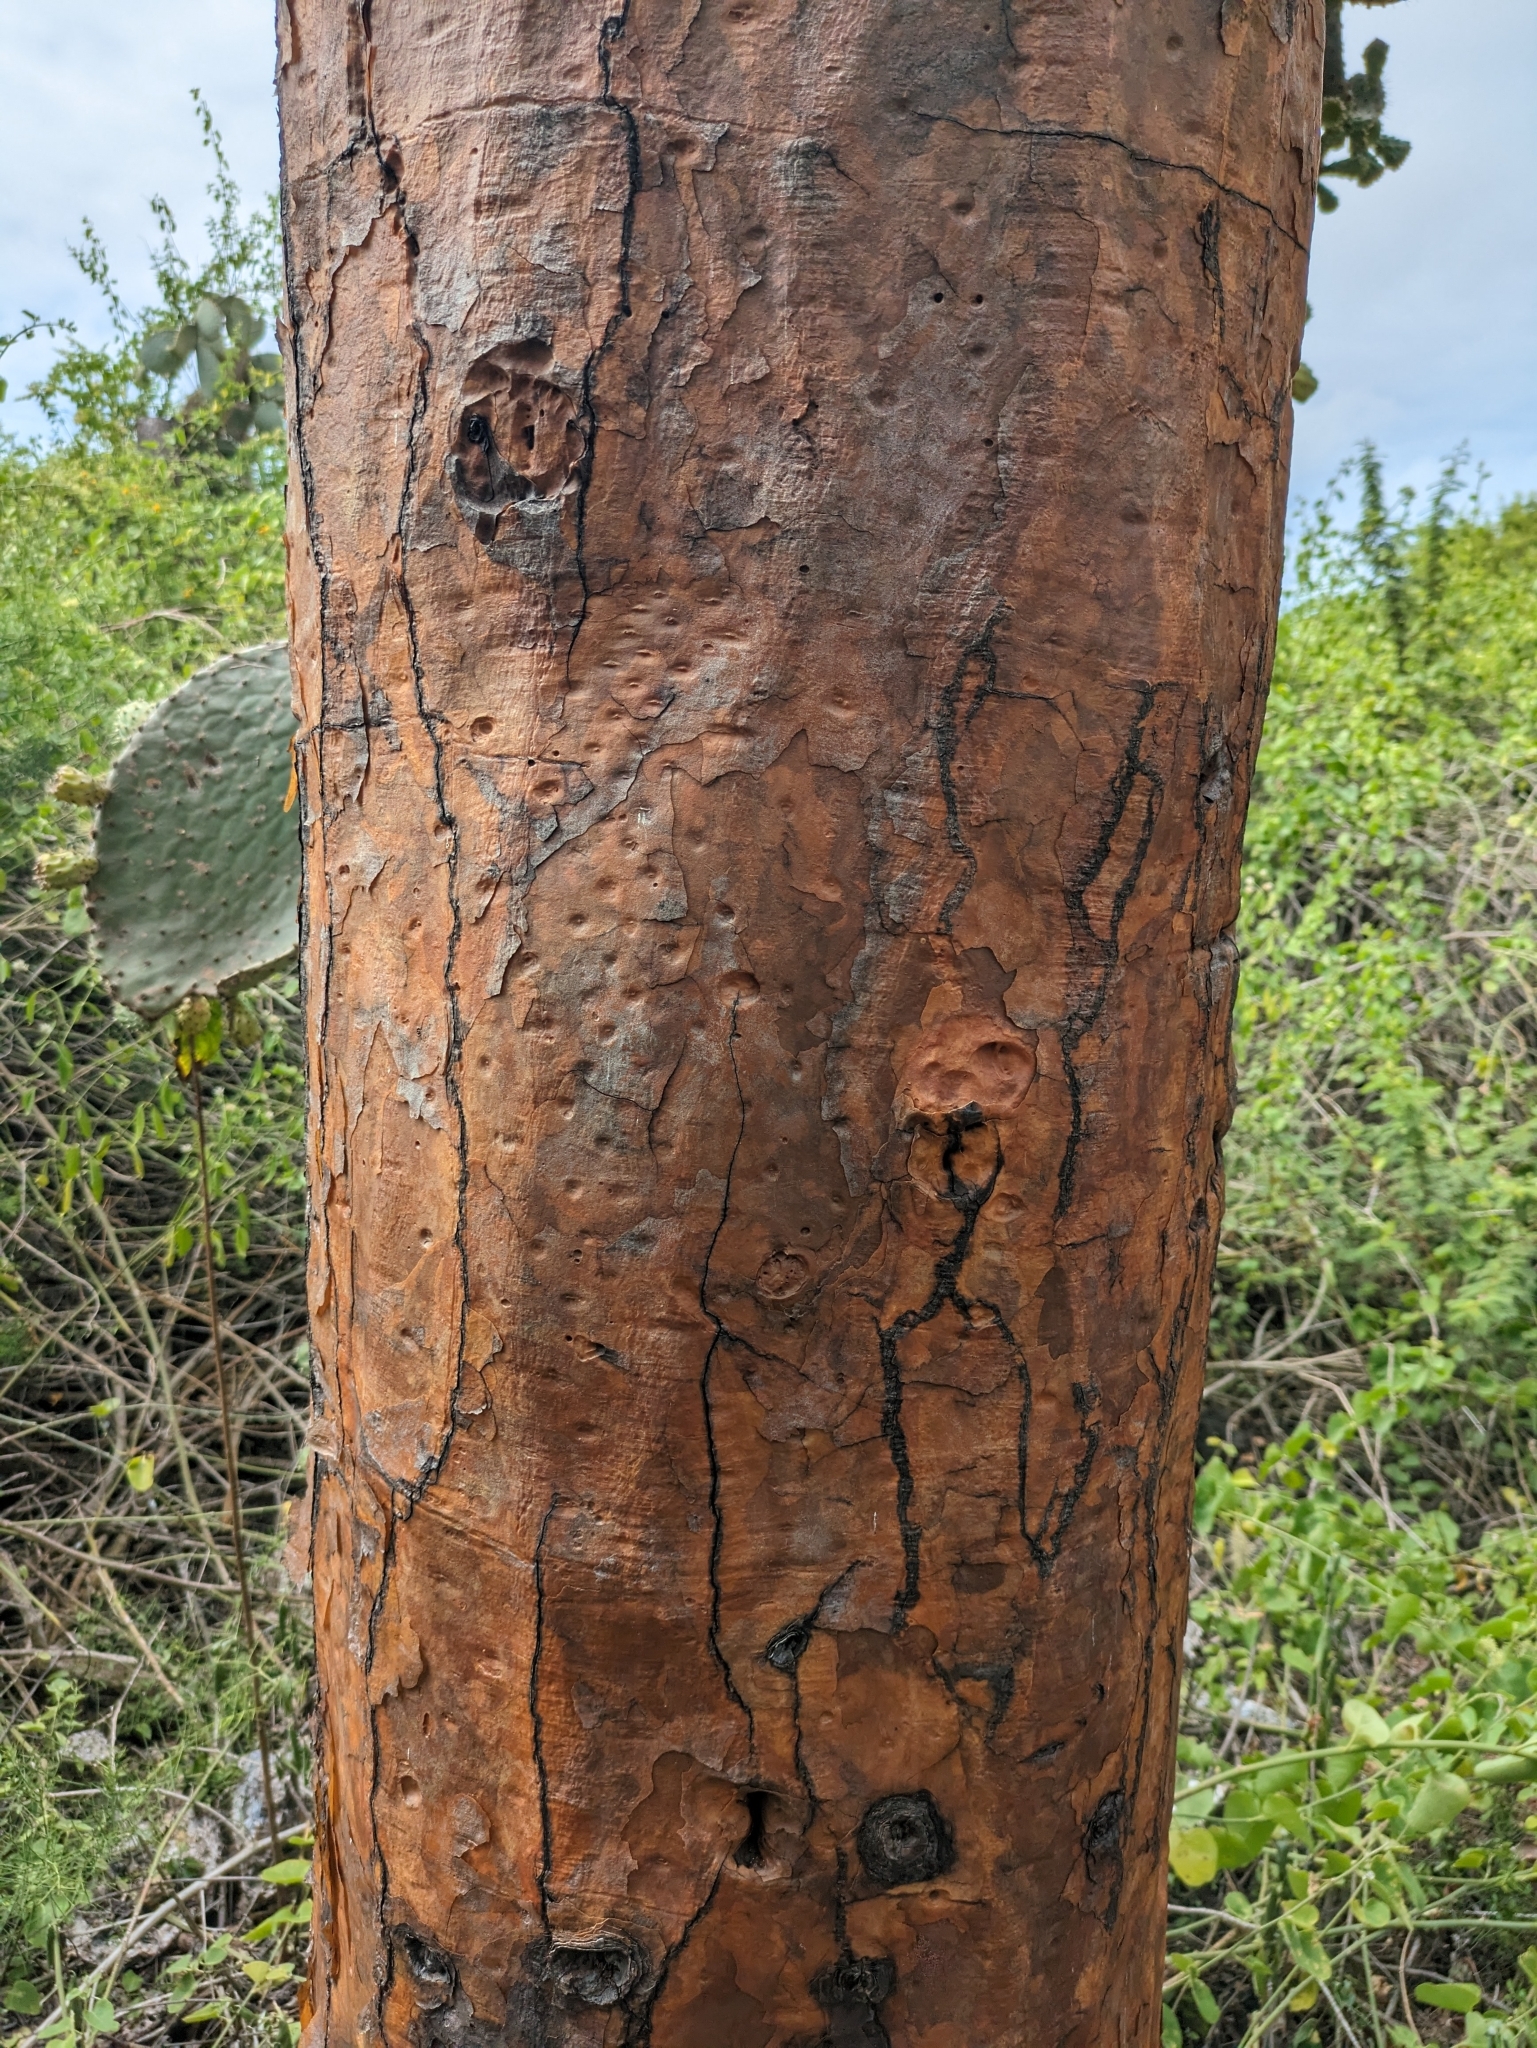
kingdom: Plantae
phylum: Tracheophyta
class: Magnoliopsida
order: Caryophyllales
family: Cactaceae
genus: Opuntia
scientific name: Opuntia galapageia
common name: Galápagos prickly pear
